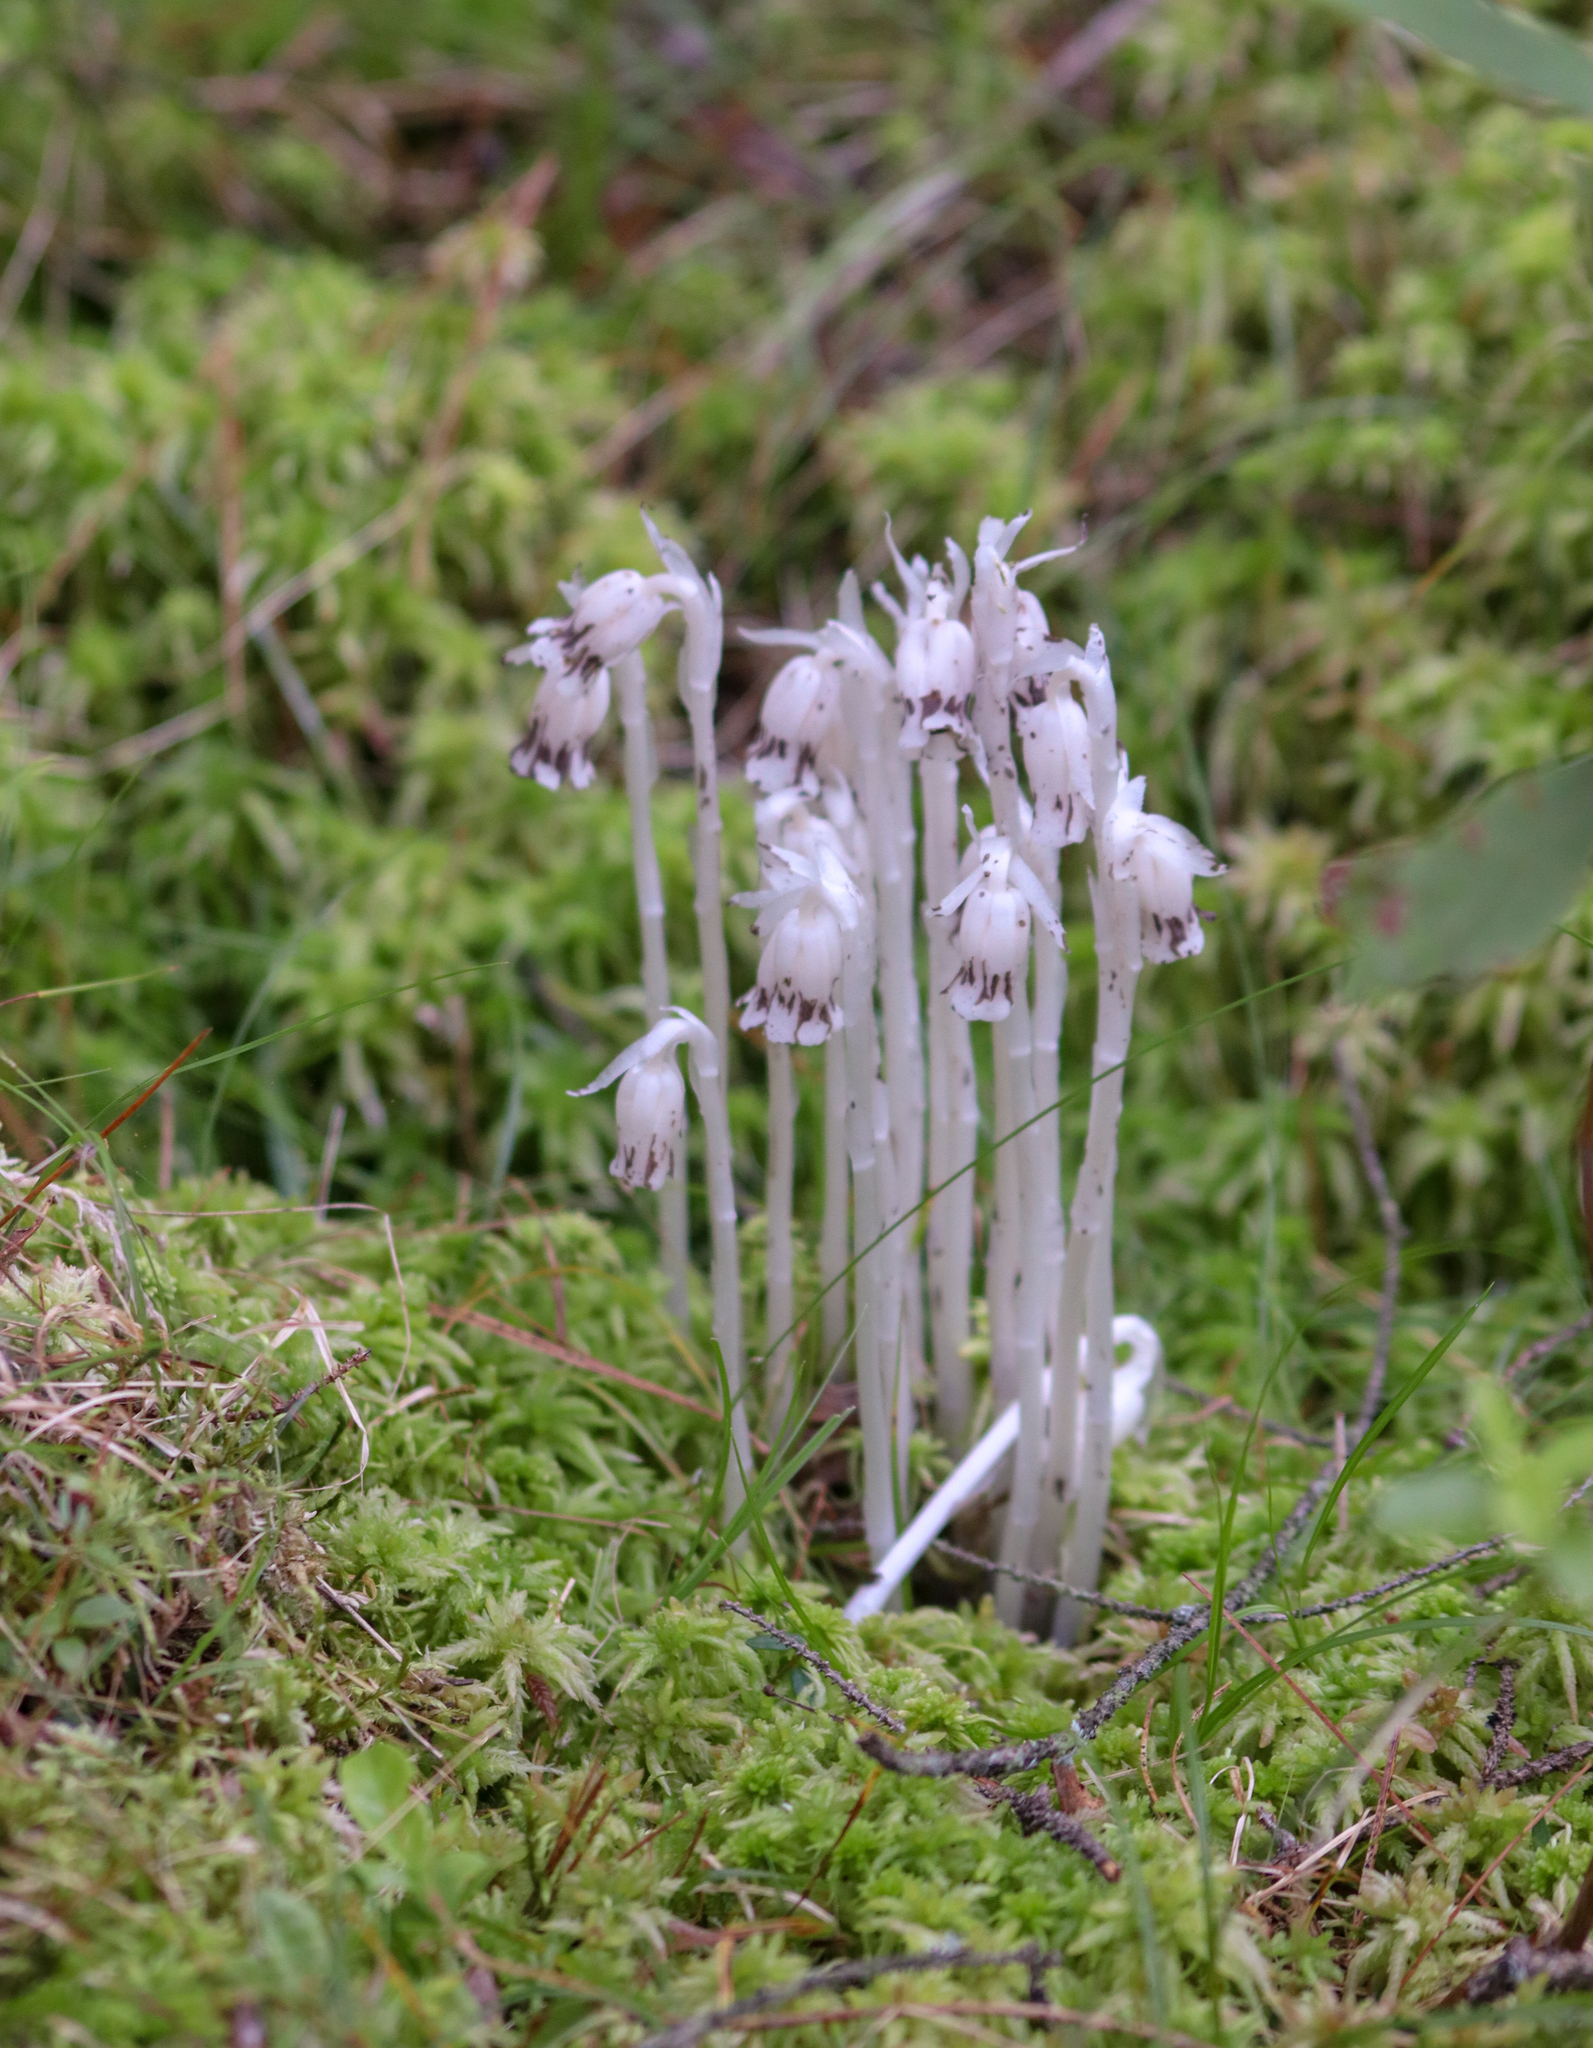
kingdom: Plantae
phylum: Tracheophyta
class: Magnoliopsida
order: Ericales
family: Ericaceae
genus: Monotropa
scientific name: Monotropa uniflora
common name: Convulsion root
